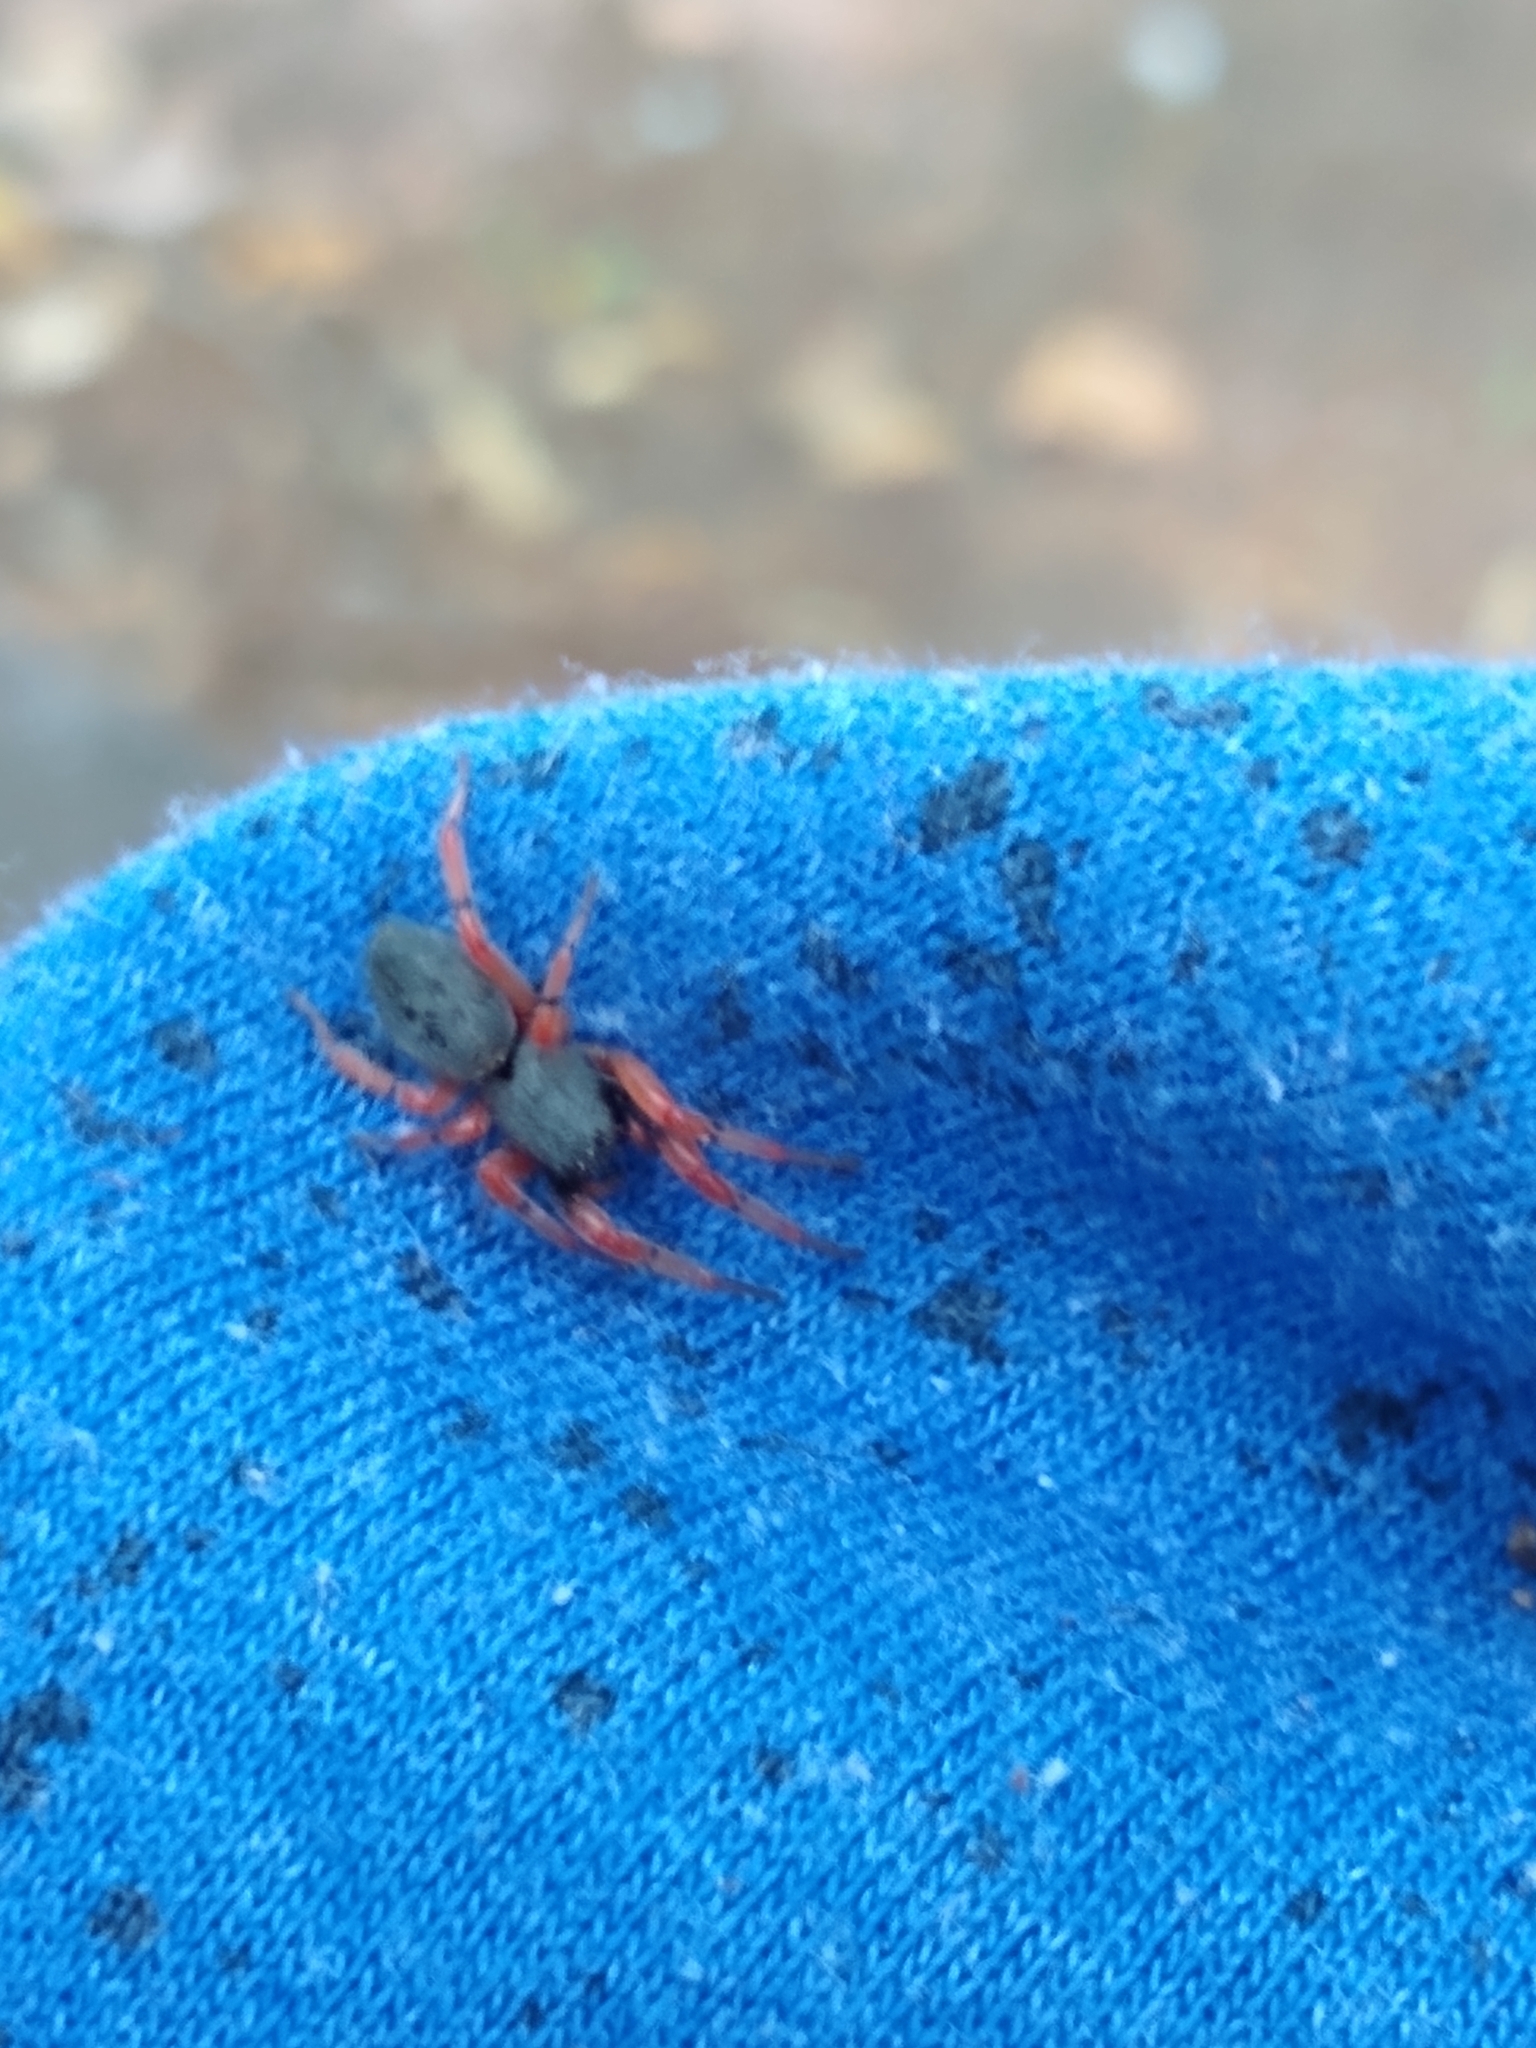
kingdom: Animalia
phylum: Arthropoda
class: Arachnida
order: Araneae
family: Trachelidae
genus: Trachelopachys
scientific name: Trachelopachys
